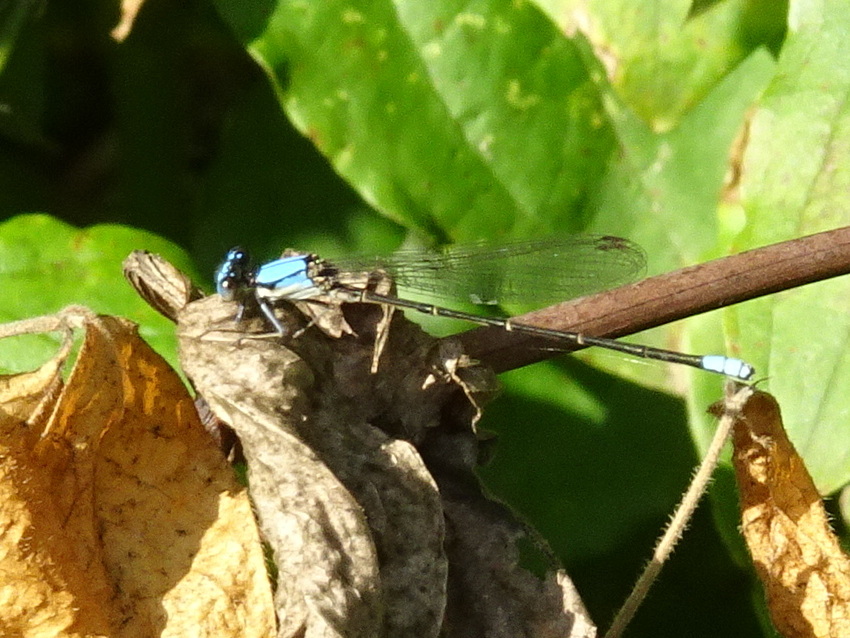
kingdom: Animalia
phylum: Arthropoda
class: Insecta
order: Odonata
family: Coenagrionidae
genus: Argia
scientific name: Argia apicalis
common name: Blue-fronted dancer
